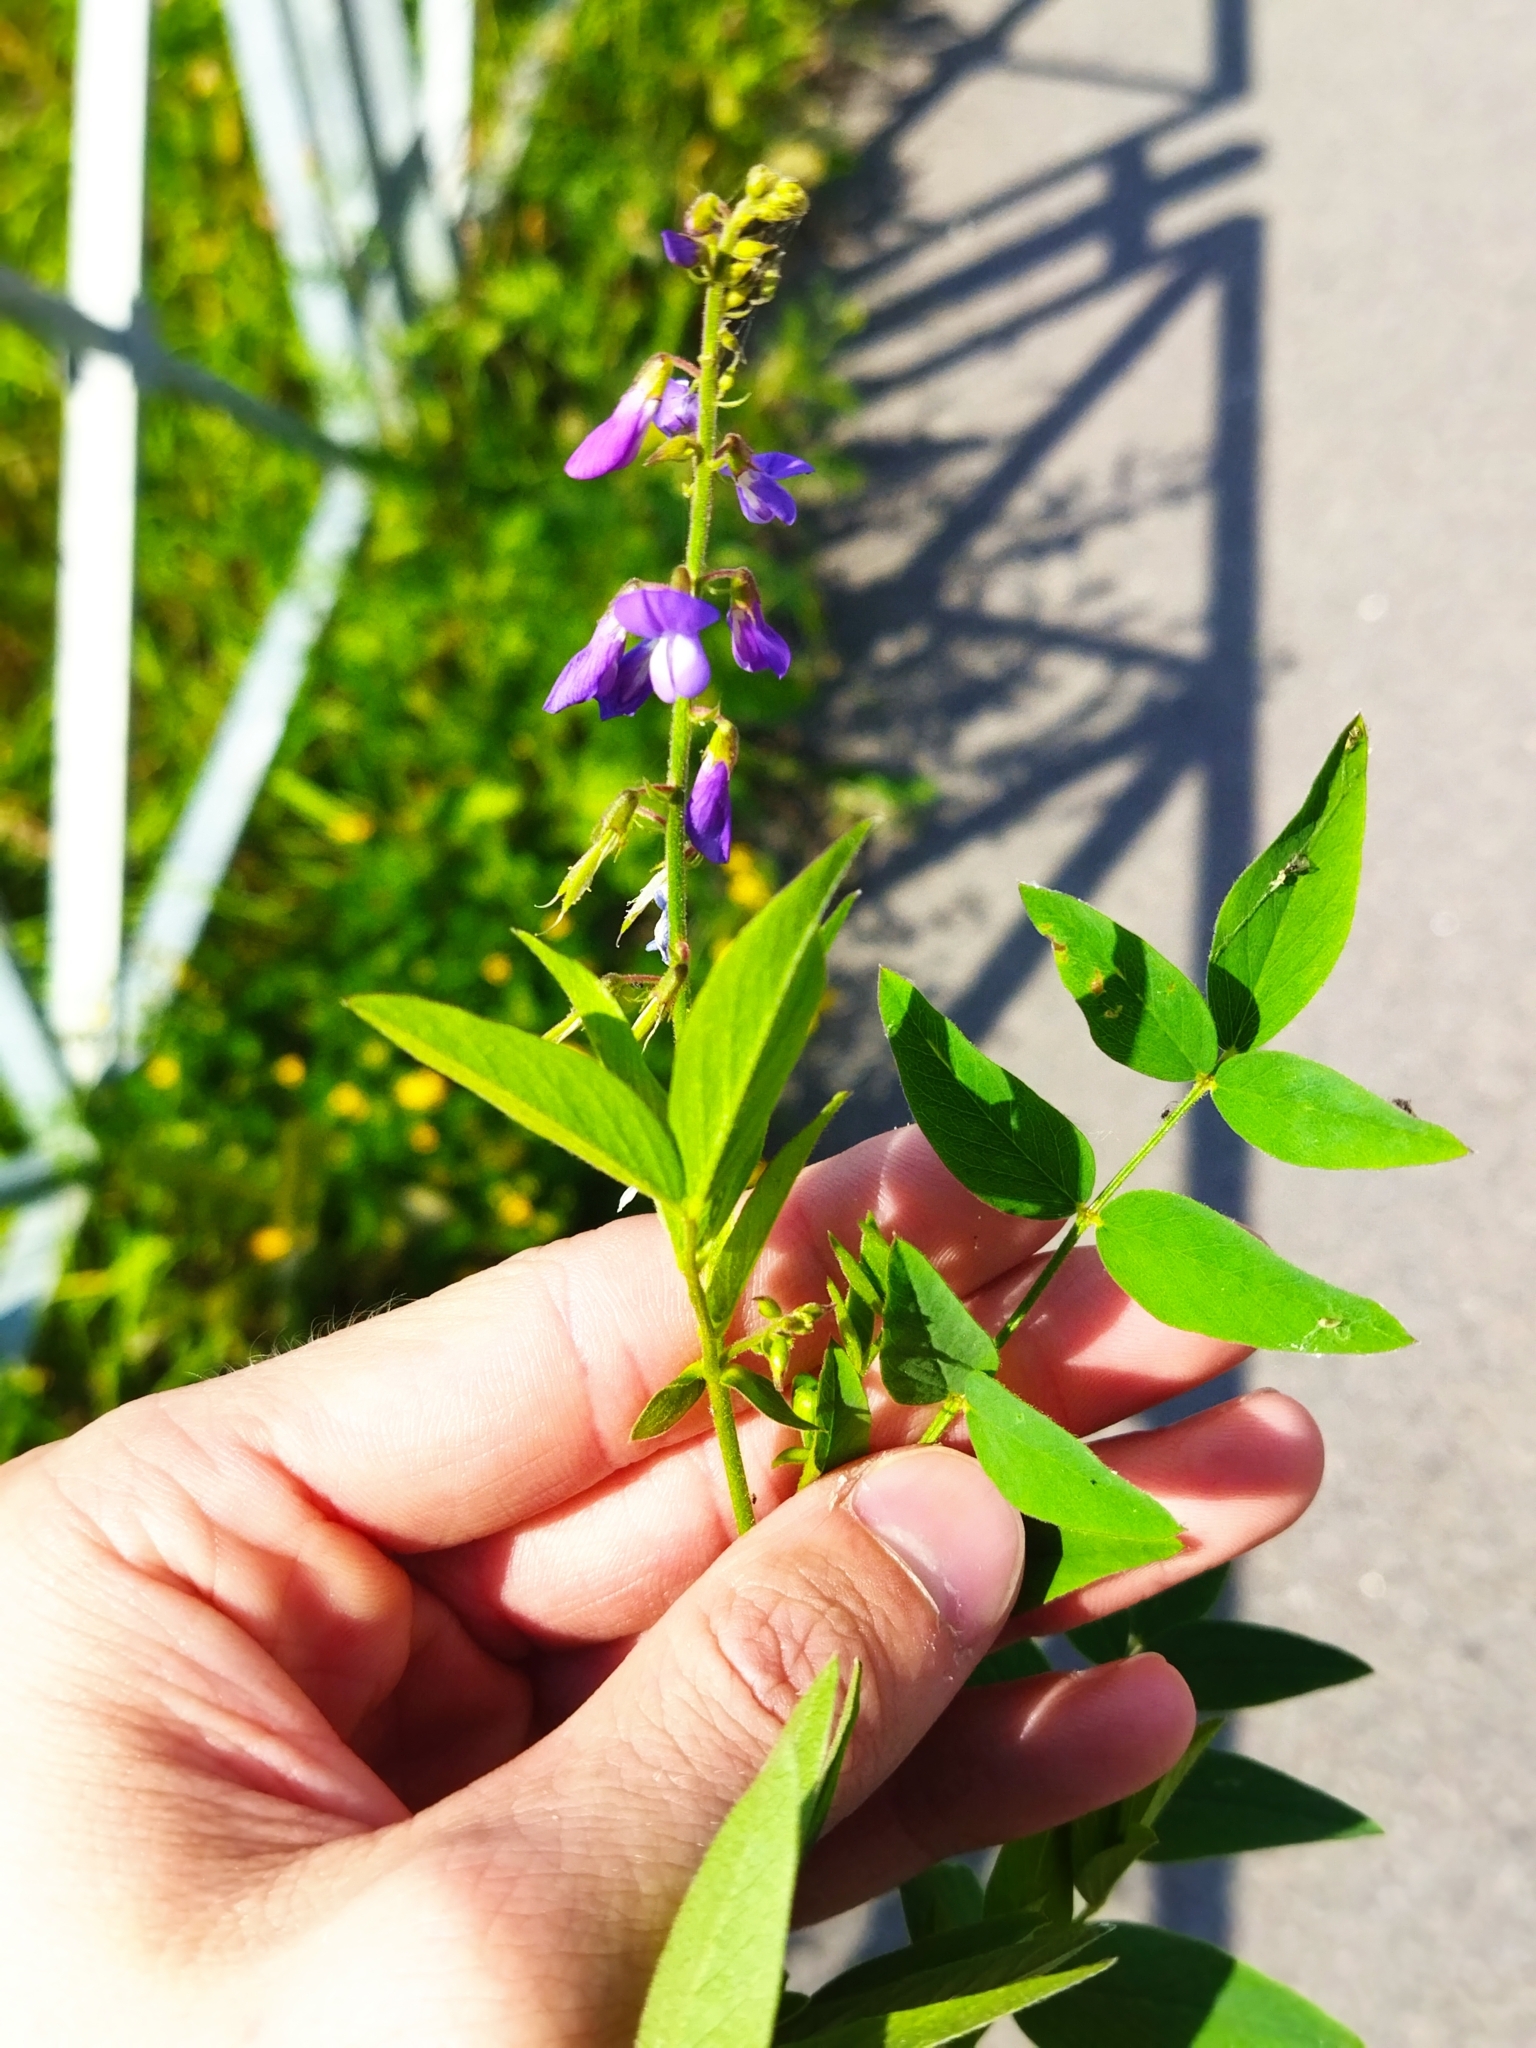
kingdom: Plantae
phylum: Tracheophyta
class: Magnoliopsida
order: Fabales
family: Fabaceae
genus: Galega
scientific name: Galega orientalis
